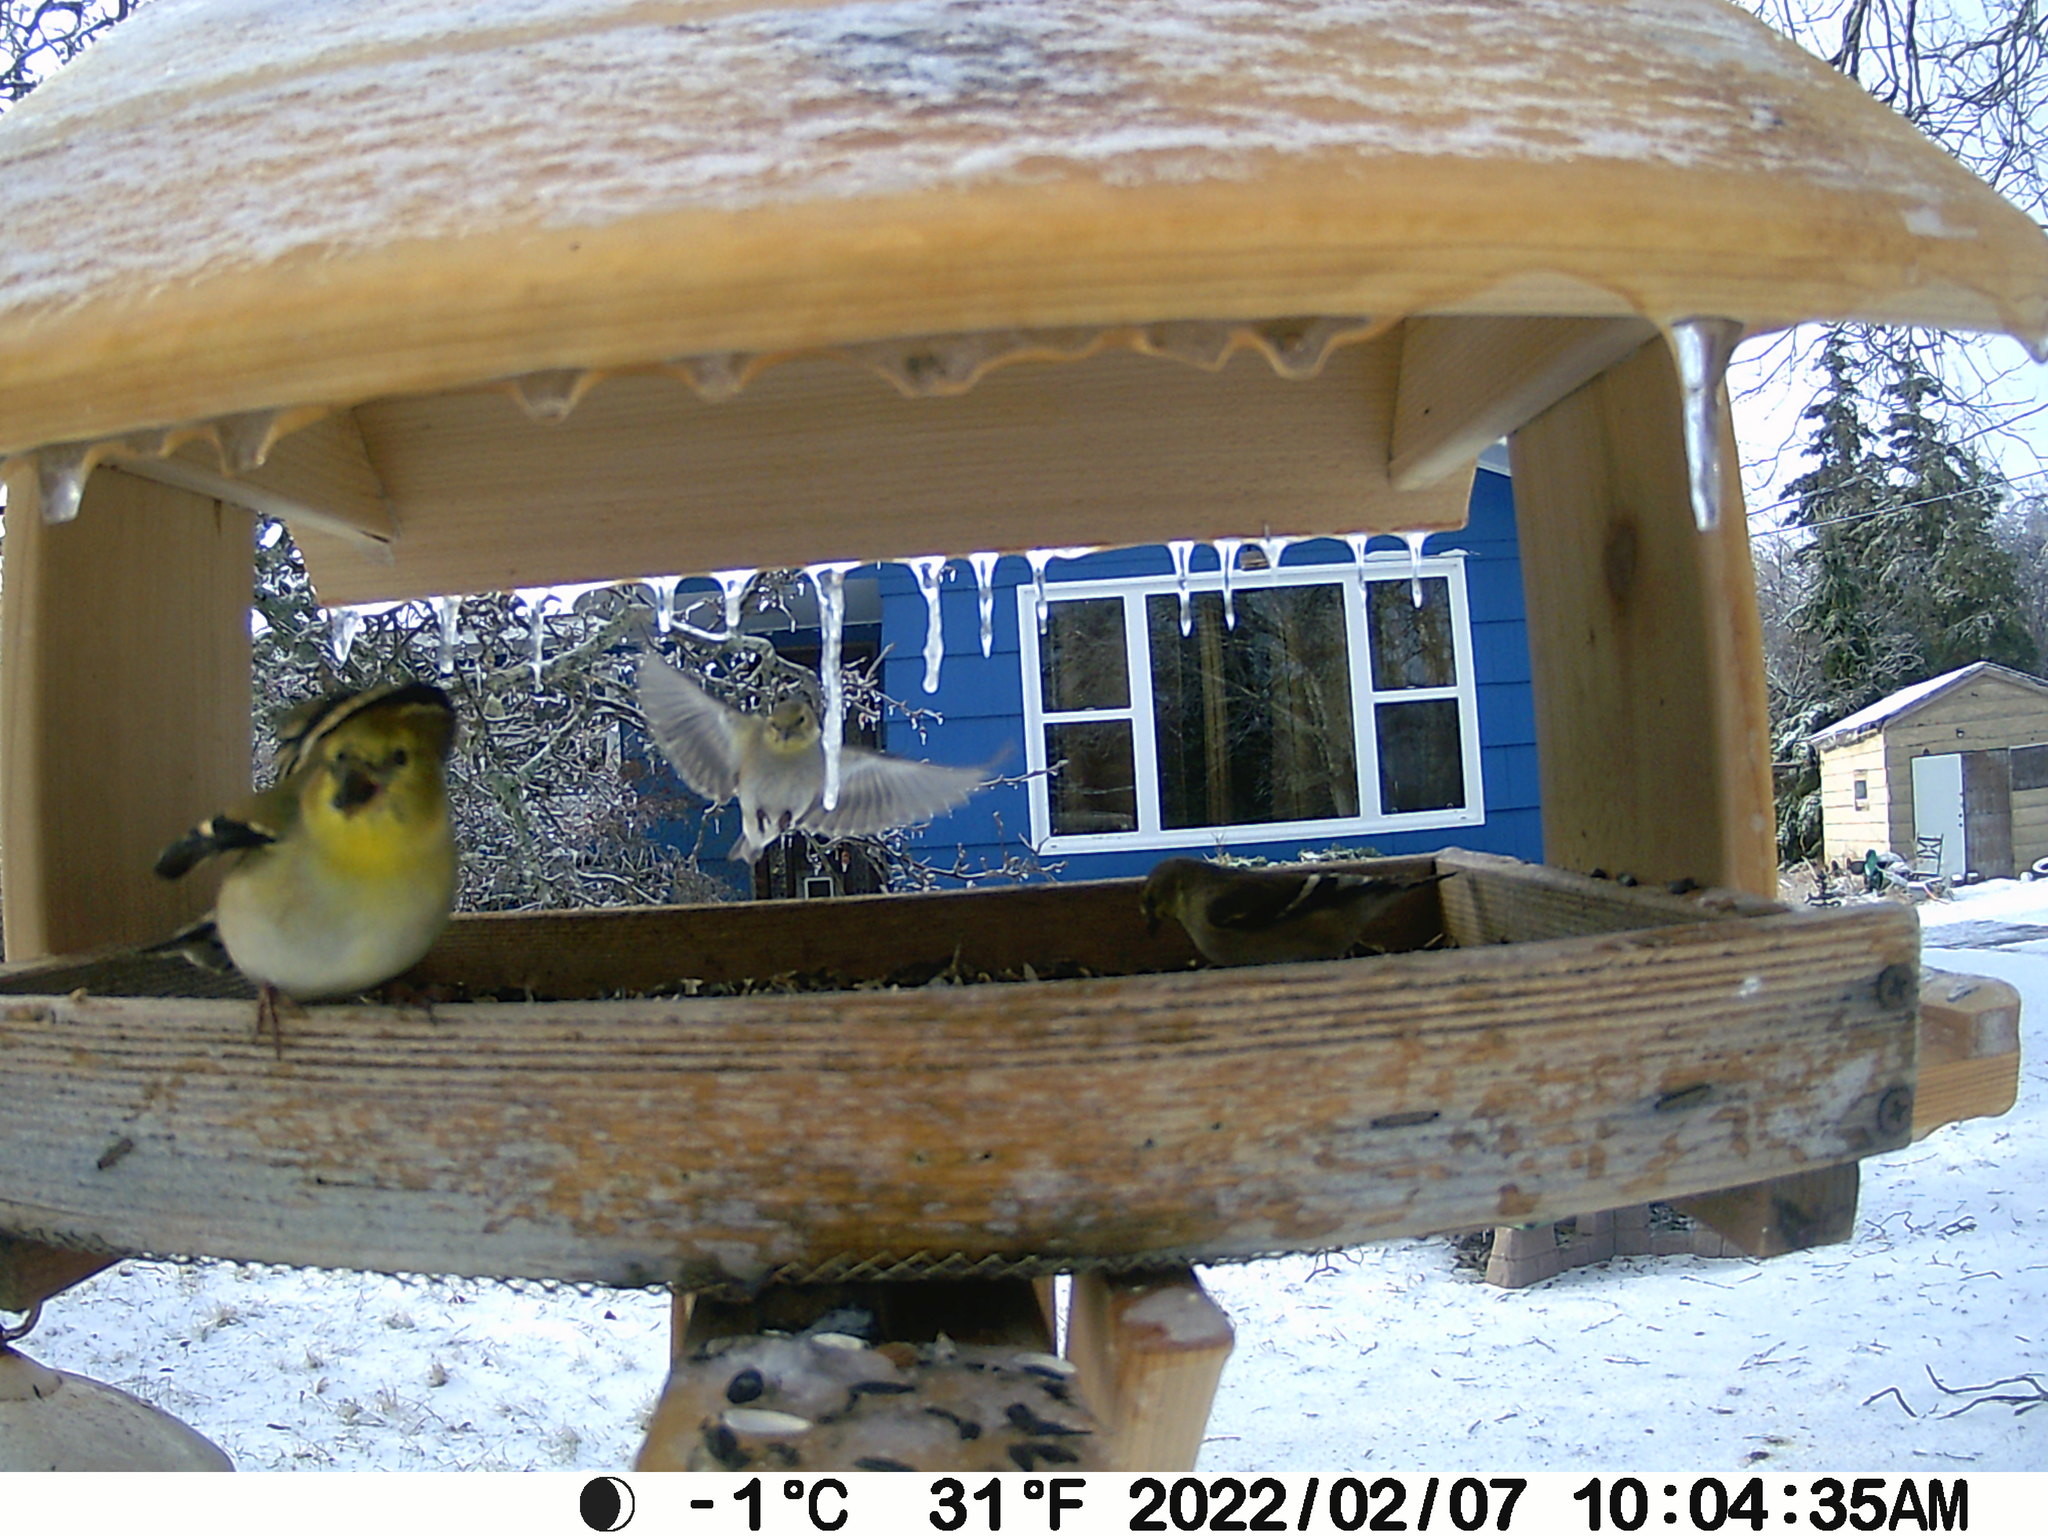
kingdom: Animalia
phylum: Chordata
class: Aves
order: Passeriformes
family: Fringillidae
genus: Spinus
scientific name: Spinus tristis
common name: American goldfinch
